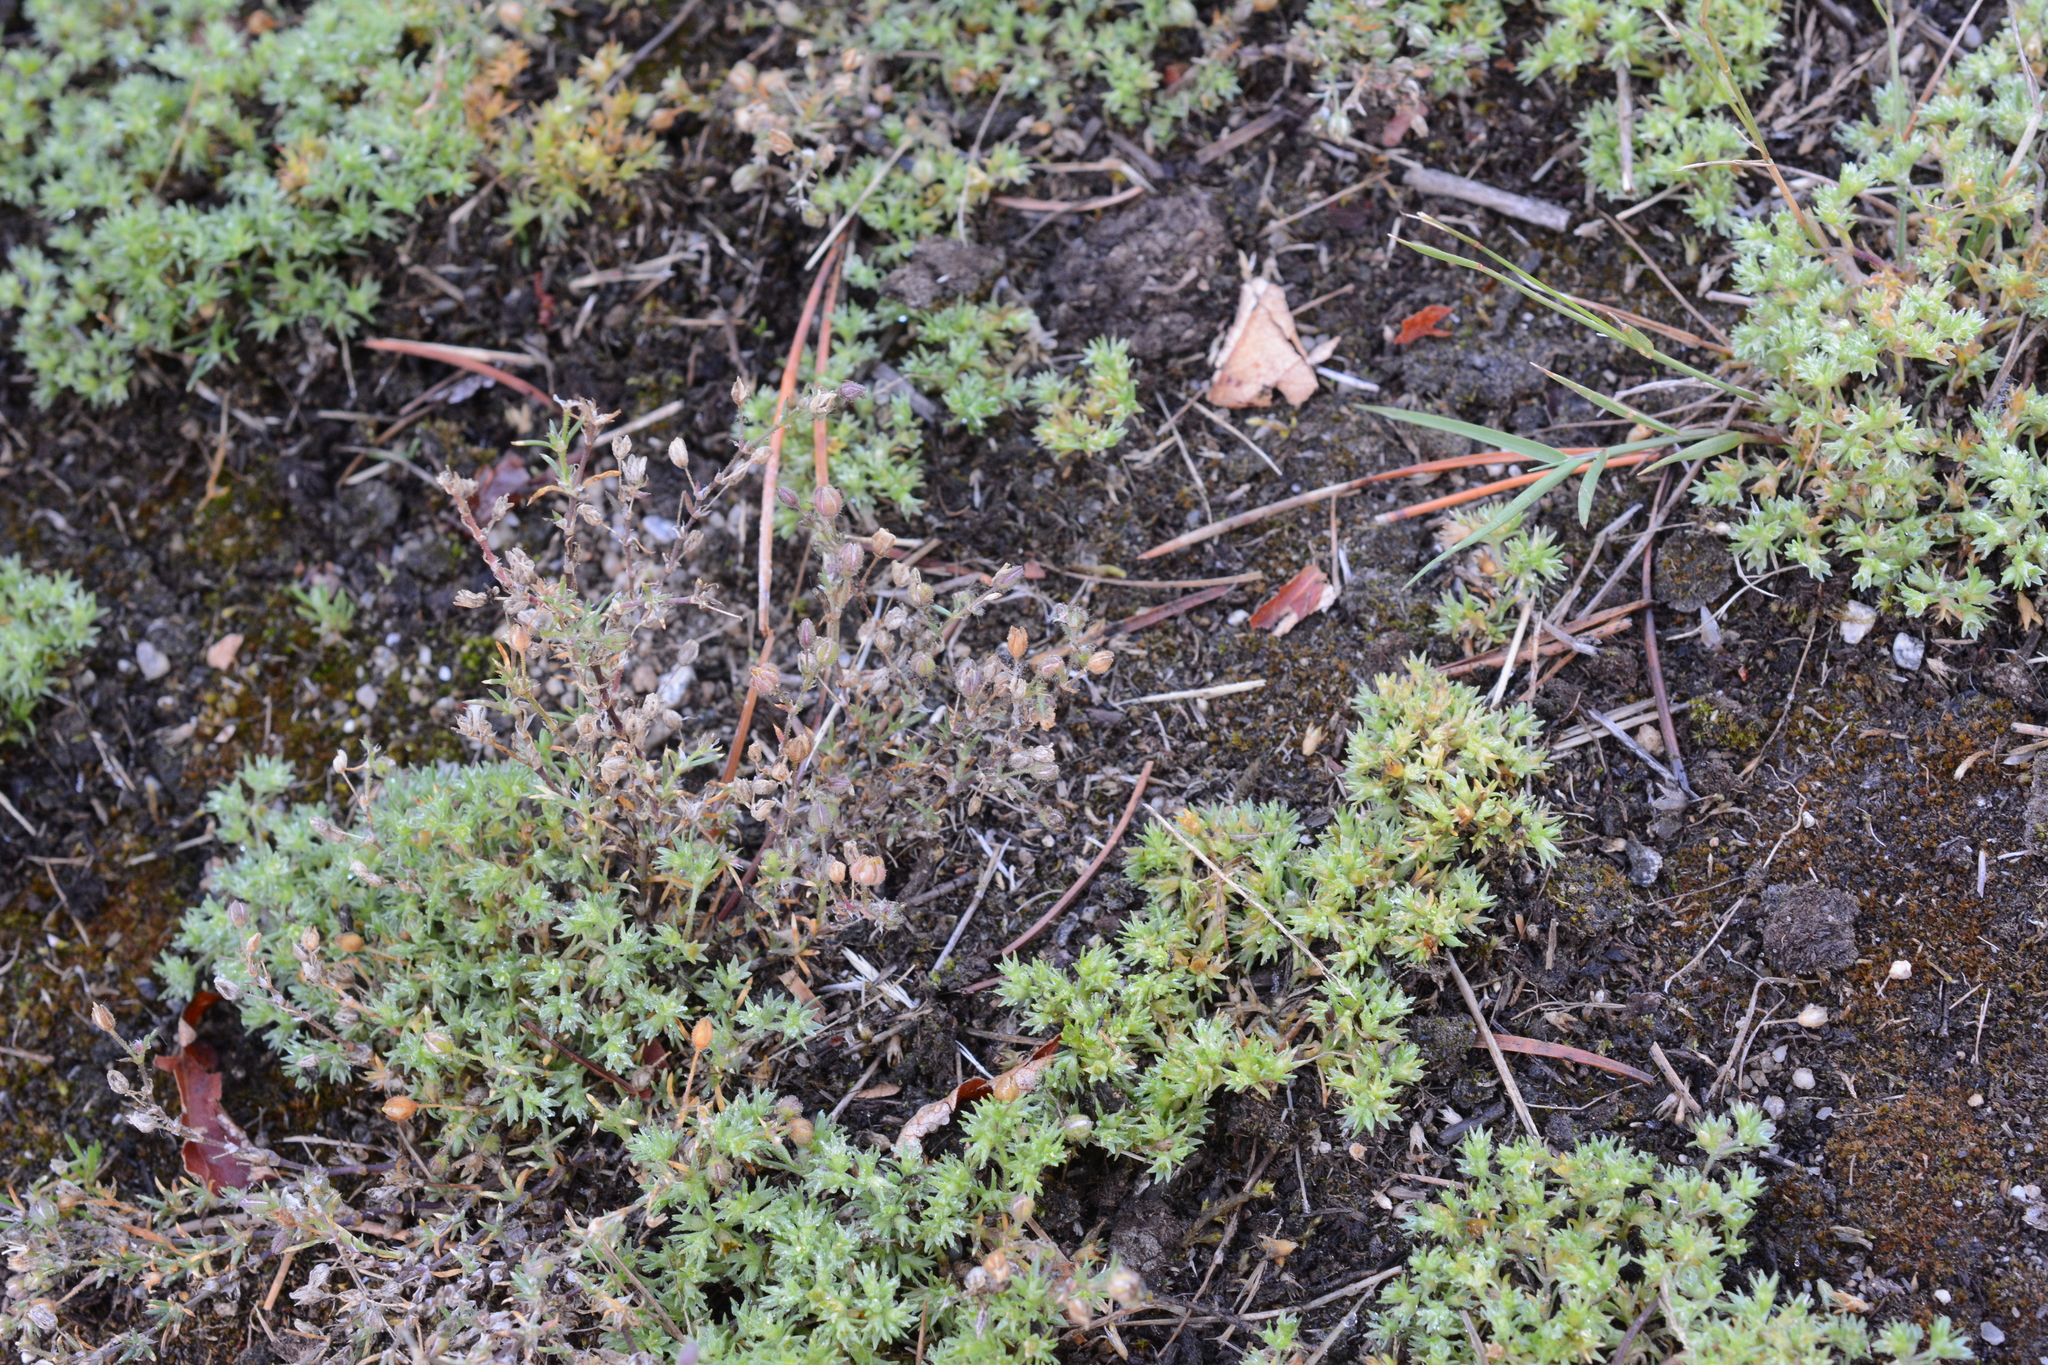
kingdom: Plantae
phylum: Tracheophyta
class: Magnoliopsida
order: Caryophyllales
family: Caryophyllaceae
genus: Scleranthus
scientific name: Scleranthus annuus
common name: Annual knawel
